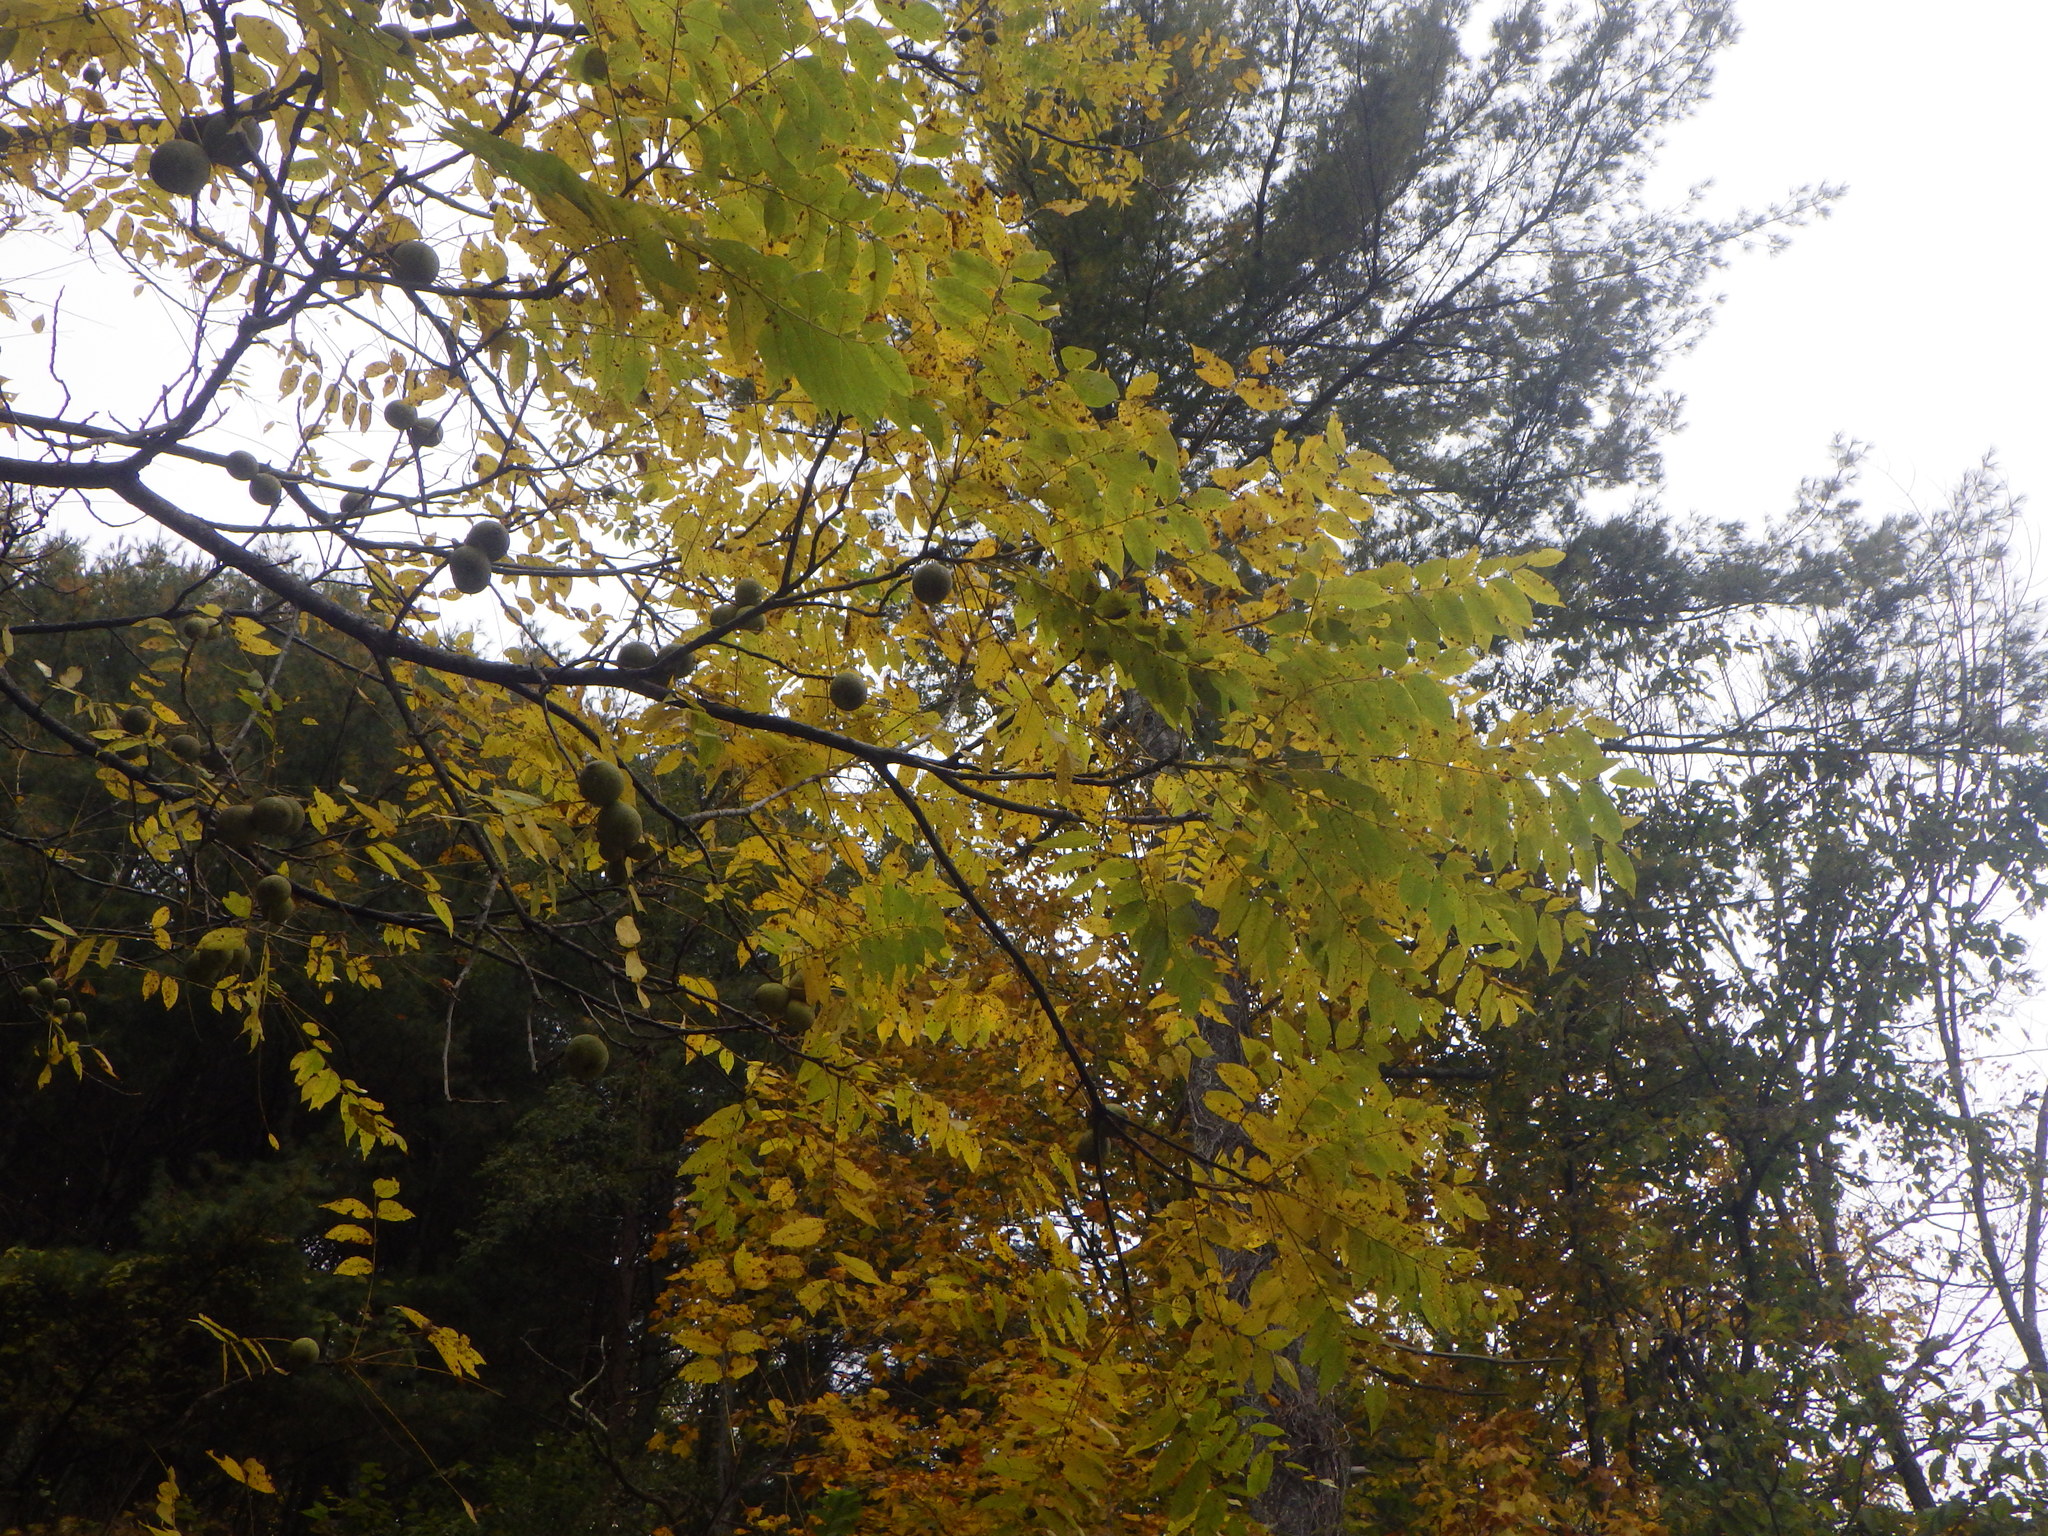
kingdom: Plantae
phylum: Tracheophyta
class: Magnoliopsida
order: Fagales
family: Juglandaceae
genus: Juglans
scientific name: Juglans nigra
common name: Black walnut
